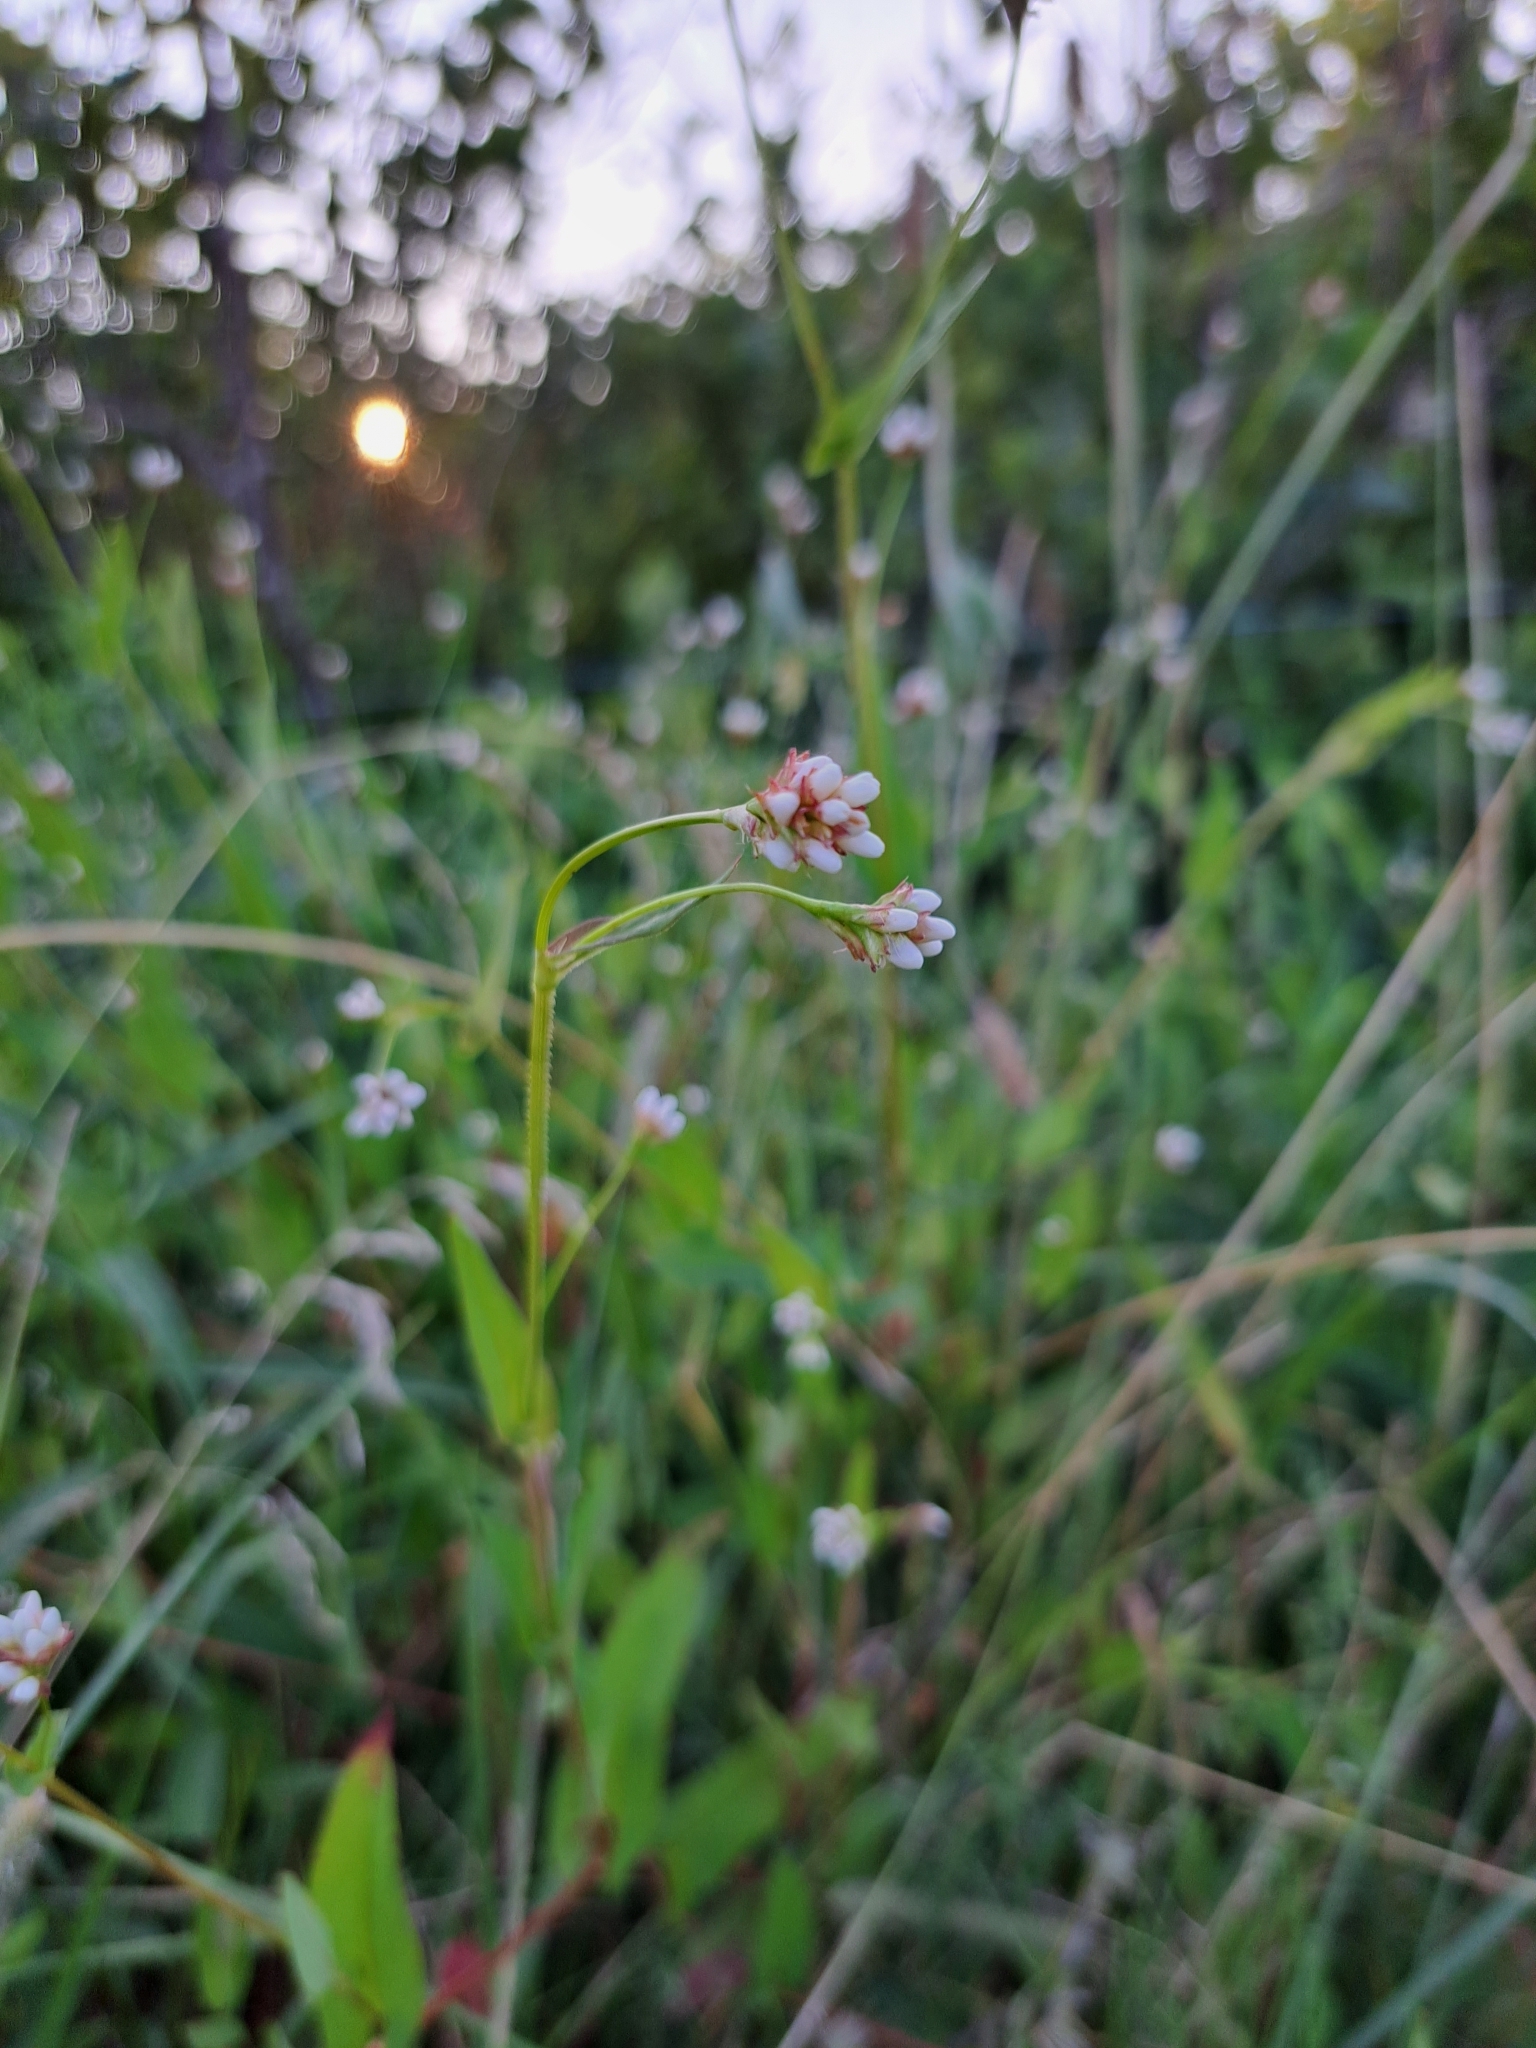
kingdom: Plantae
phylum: Tracheophyta
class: Magnoliopsida
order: Caryophyllales
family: Polygonaceae
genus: Persicaria
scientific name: Persicaria sagittata
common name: American tearthumb
